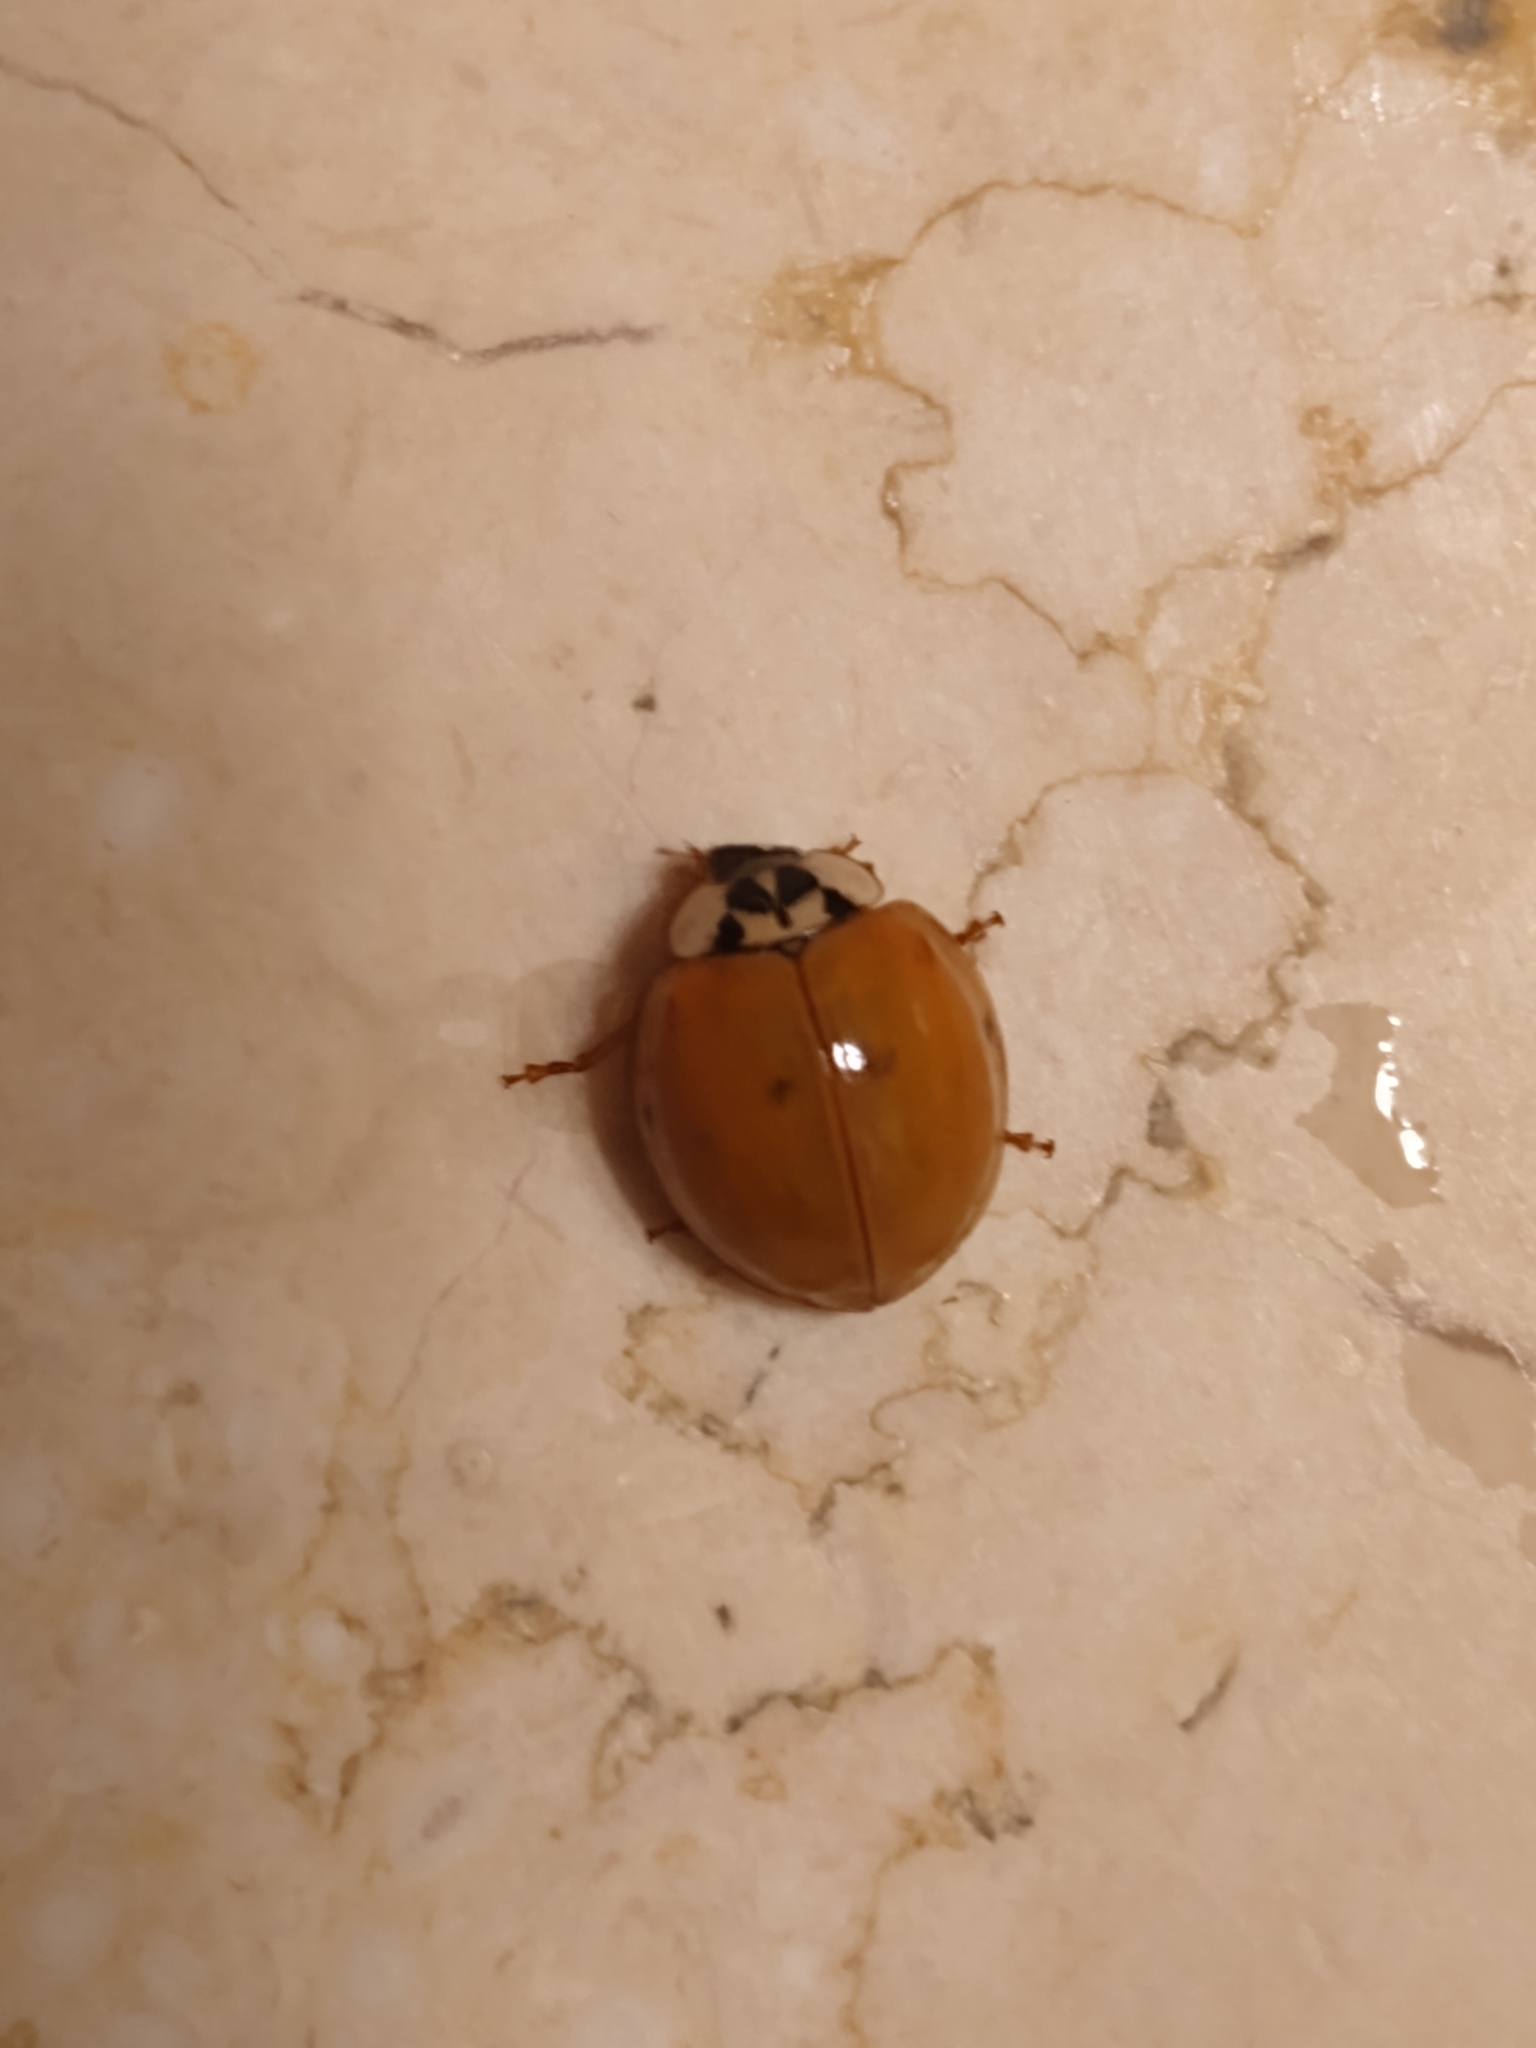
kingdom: Animalia
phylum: Arthropoda
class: Insecta
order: Coleoptera
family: Coccinellidae
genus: Harmonia
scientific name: Harmonia axyridis
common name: Harlequin ladybird
